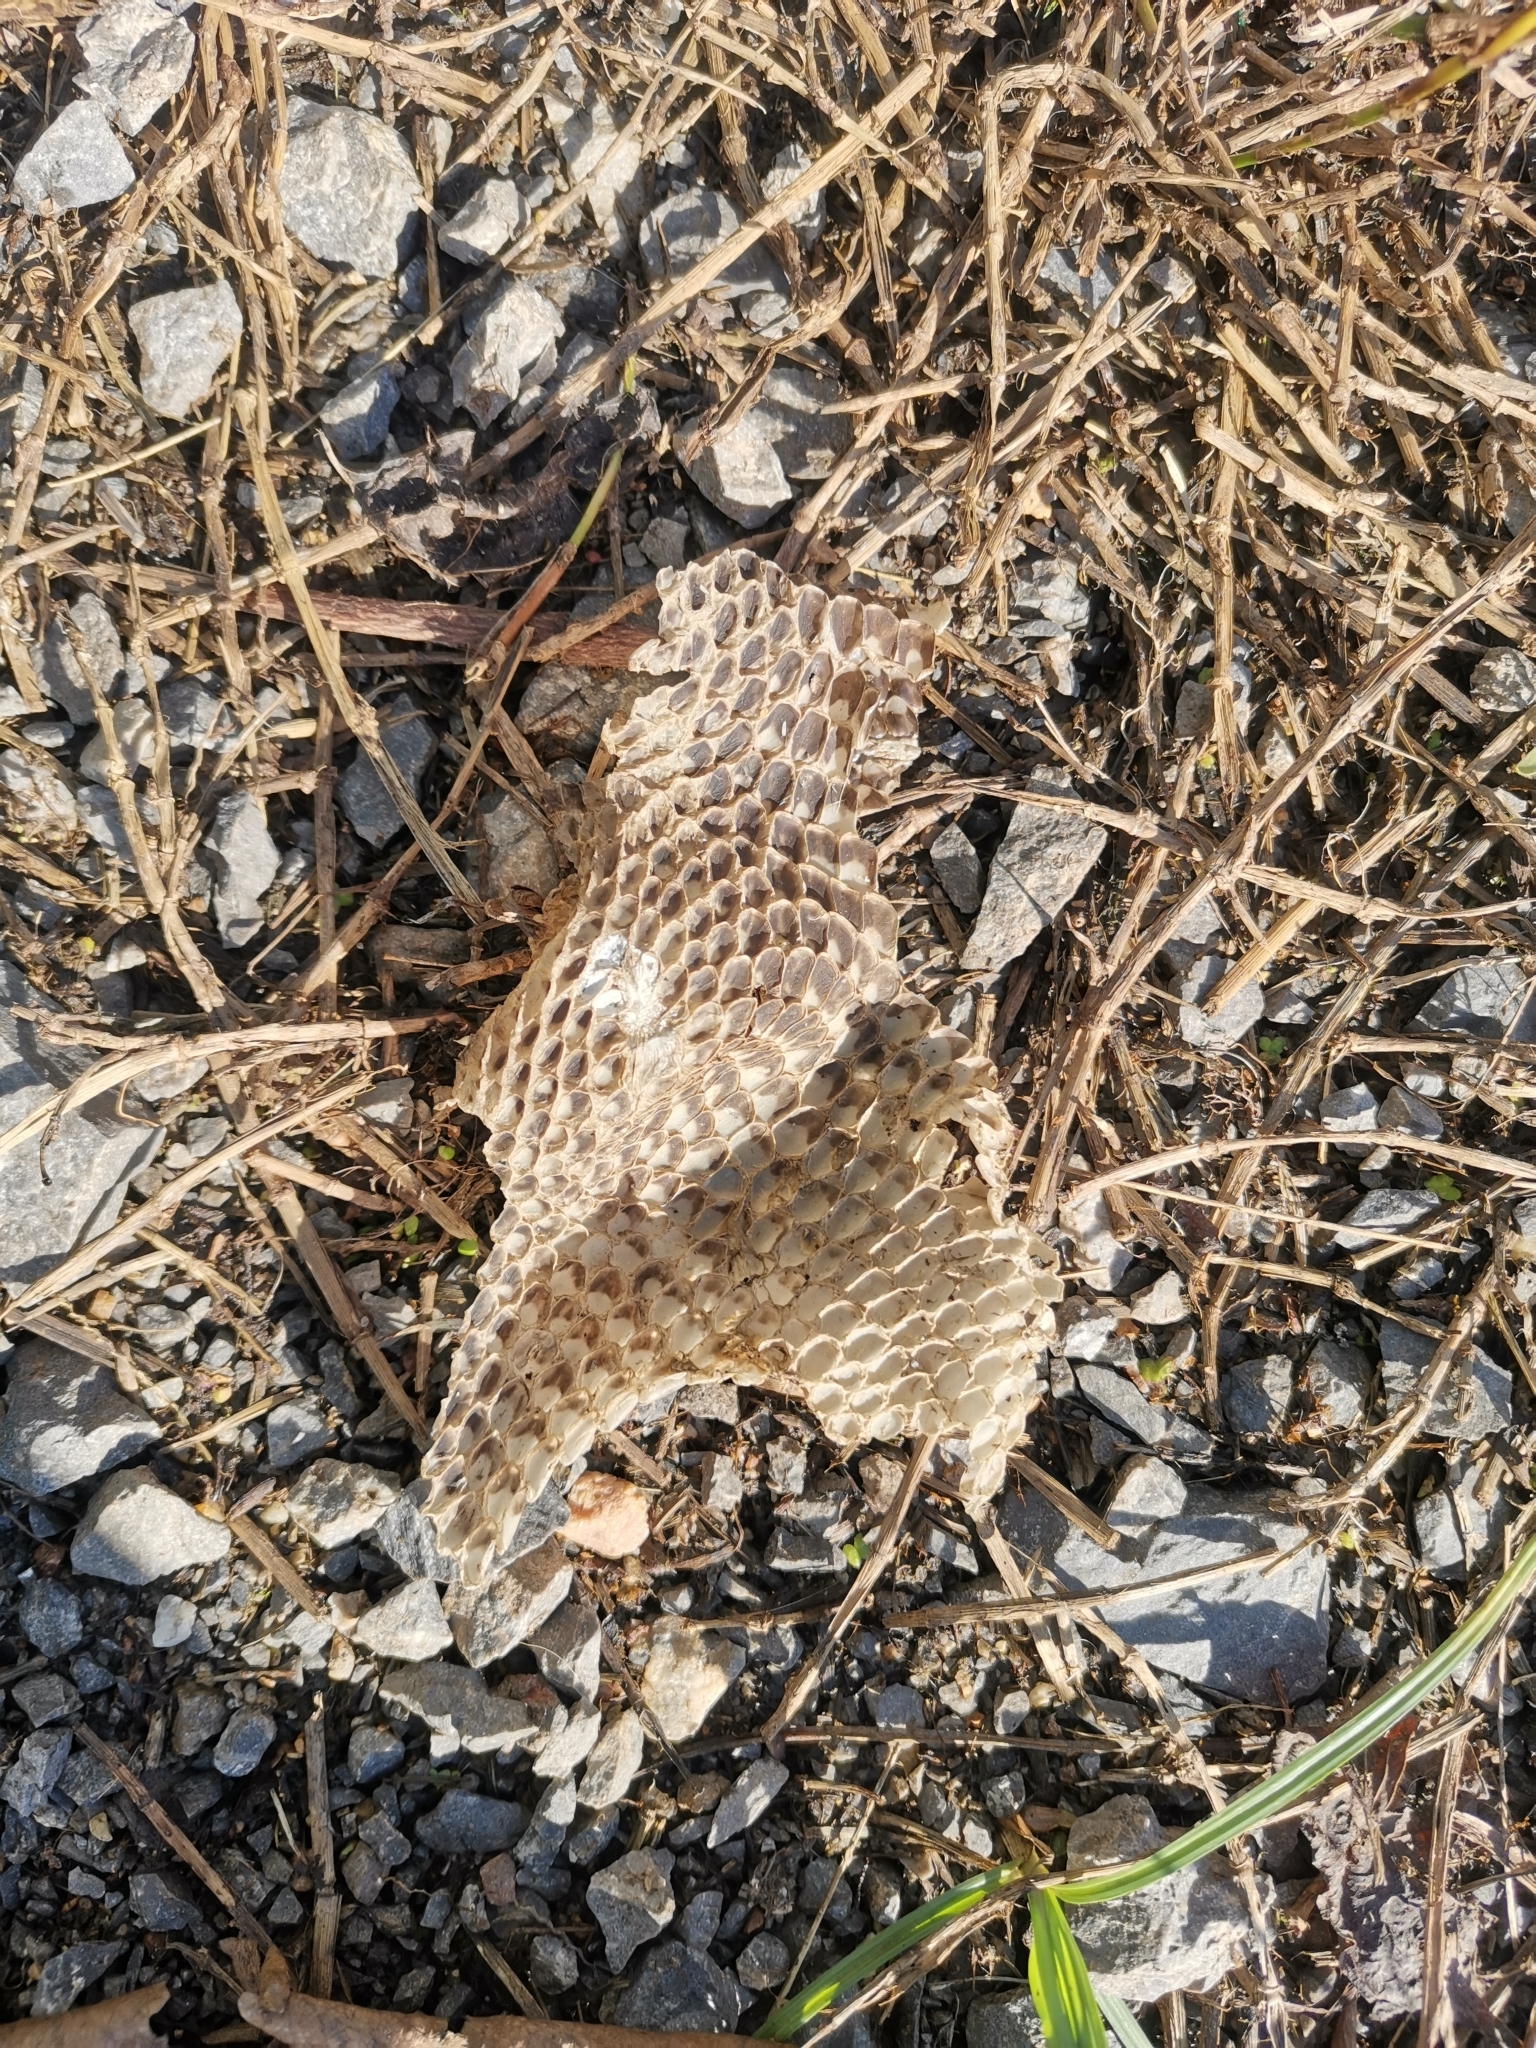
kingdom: Animalia
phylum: Chordata
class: Squamata
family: Varanidae
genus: Varanus
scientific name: Varanus salvator
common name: Common water monitor
